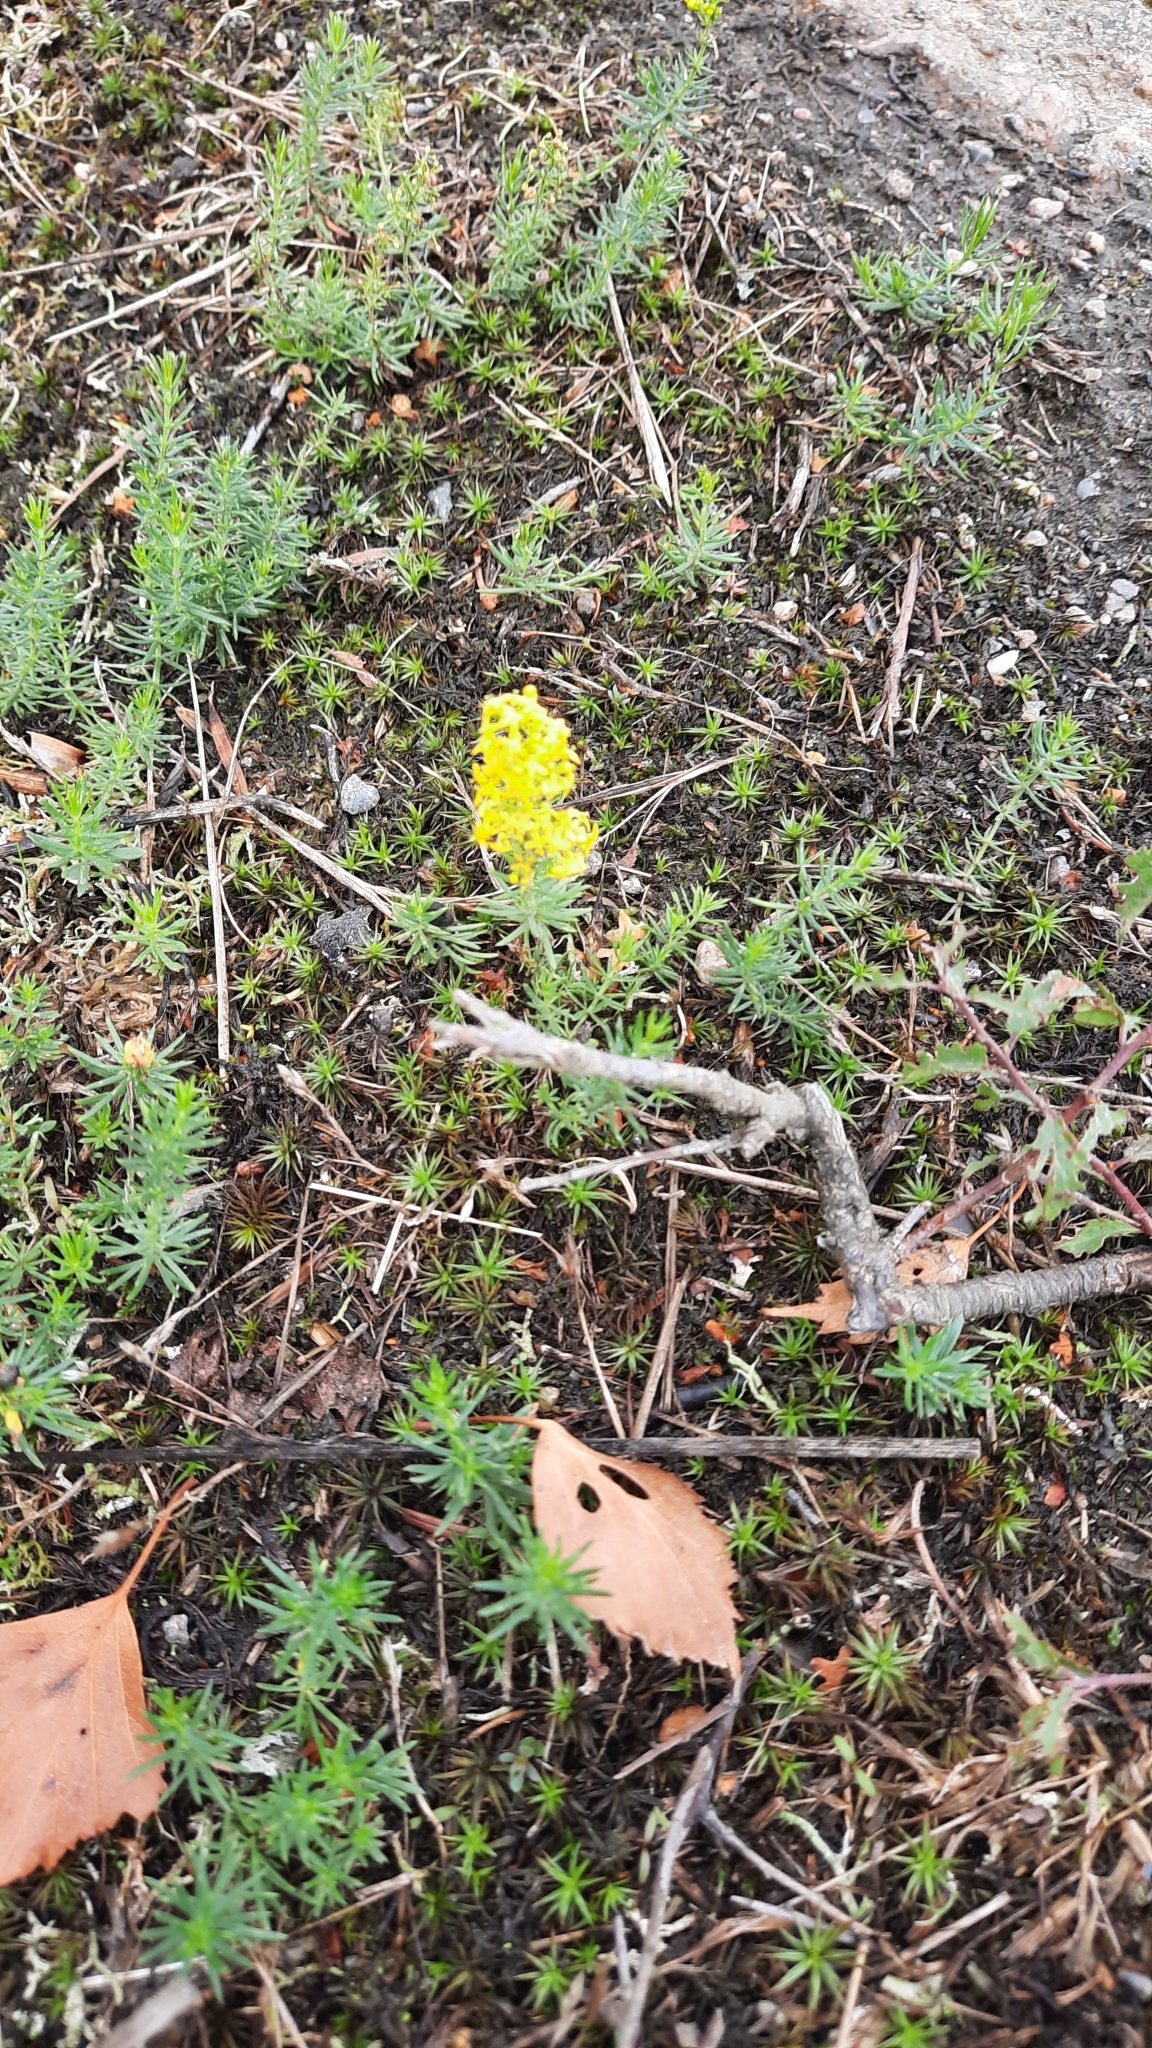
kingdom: Plantae
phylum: Tracheophyta
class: Magnoliopsida
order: Gentianales
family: Rubiaceae
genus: Galium
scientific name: Galium verum
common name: Lady's bedstraw
